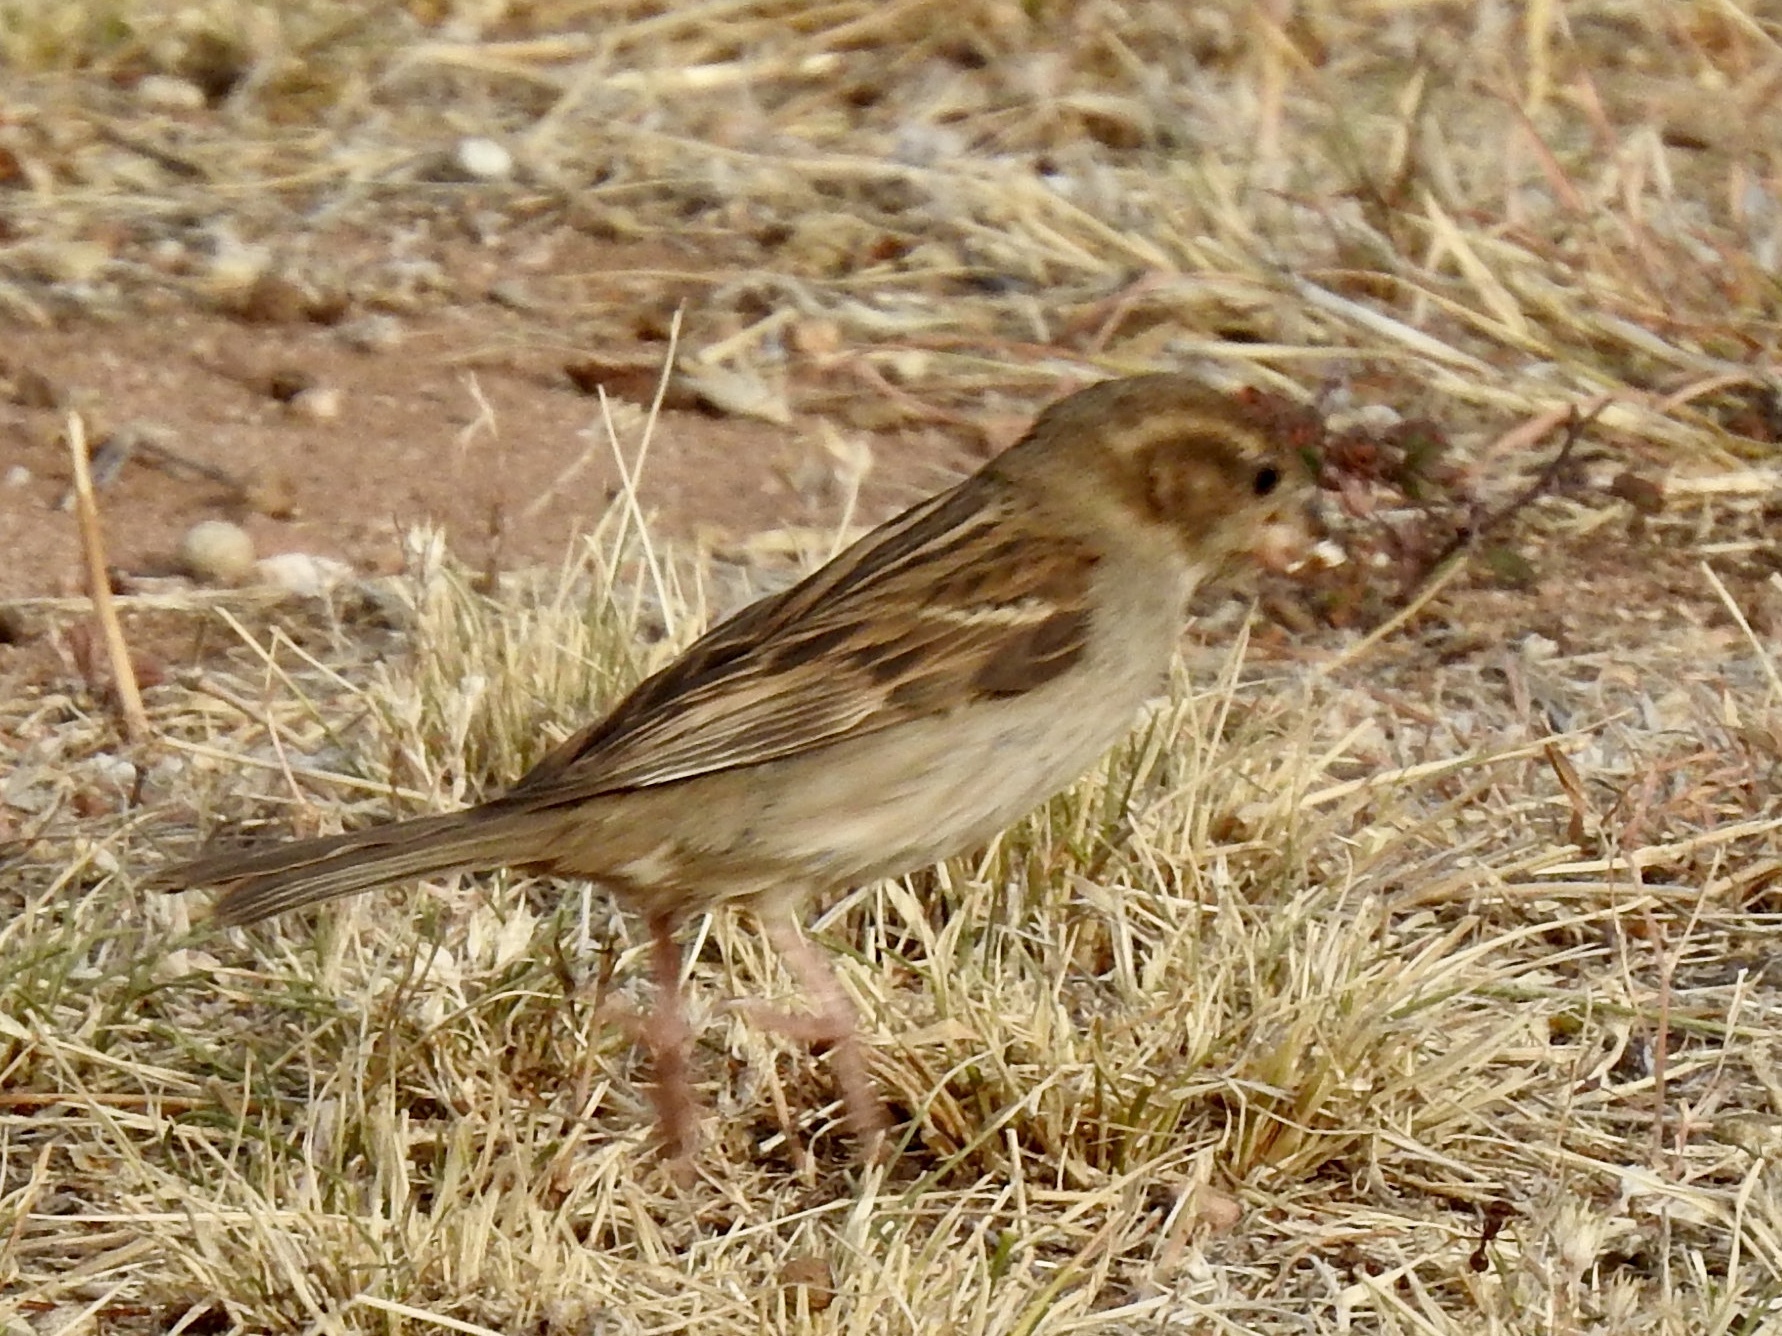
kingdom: Animalia
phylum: Chordata
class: Aves
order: Passeriformes
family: Passeridae
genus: Passer
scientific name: Passer domesticus
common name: House sparrow
